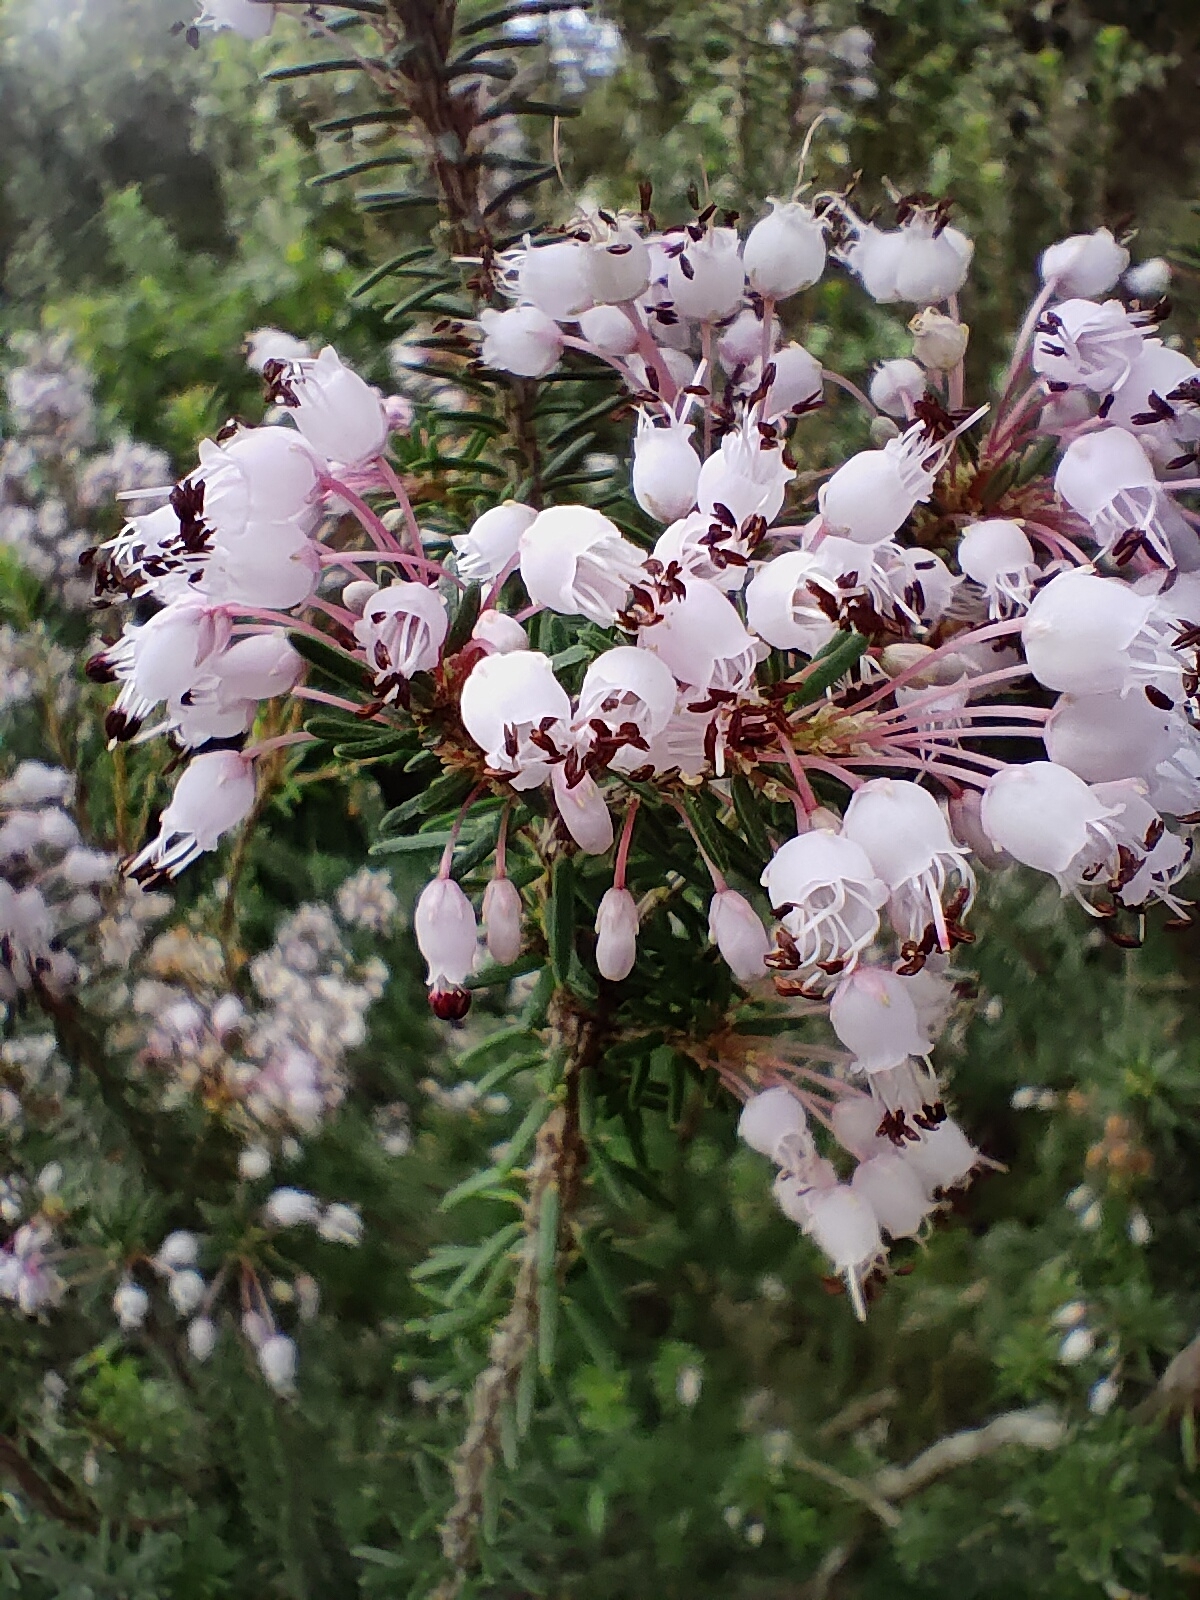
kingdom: Plantae
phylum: Tracheophyta
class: Magnoliopsida
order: Ericales
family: Ericaceae
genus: Erica
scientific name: Erica multiflora
